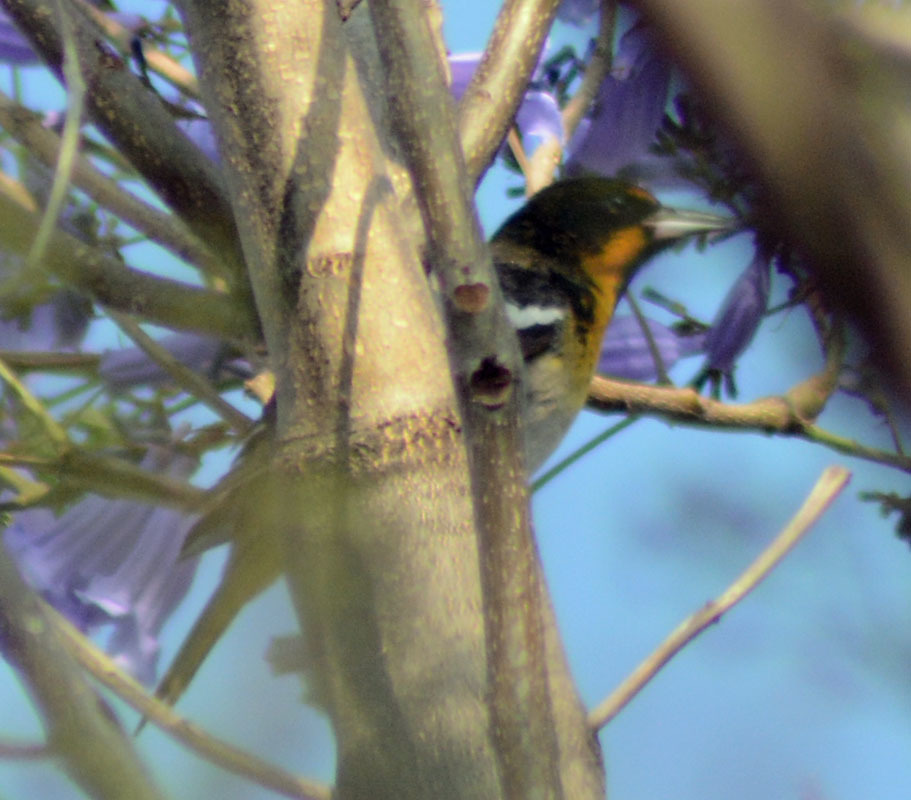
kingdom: Animalia
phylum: Chordata
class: Aves
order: Passeriformes
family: Icteridae
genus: Icterus
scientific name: Icterus abeillei
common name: Black-backed oriole
